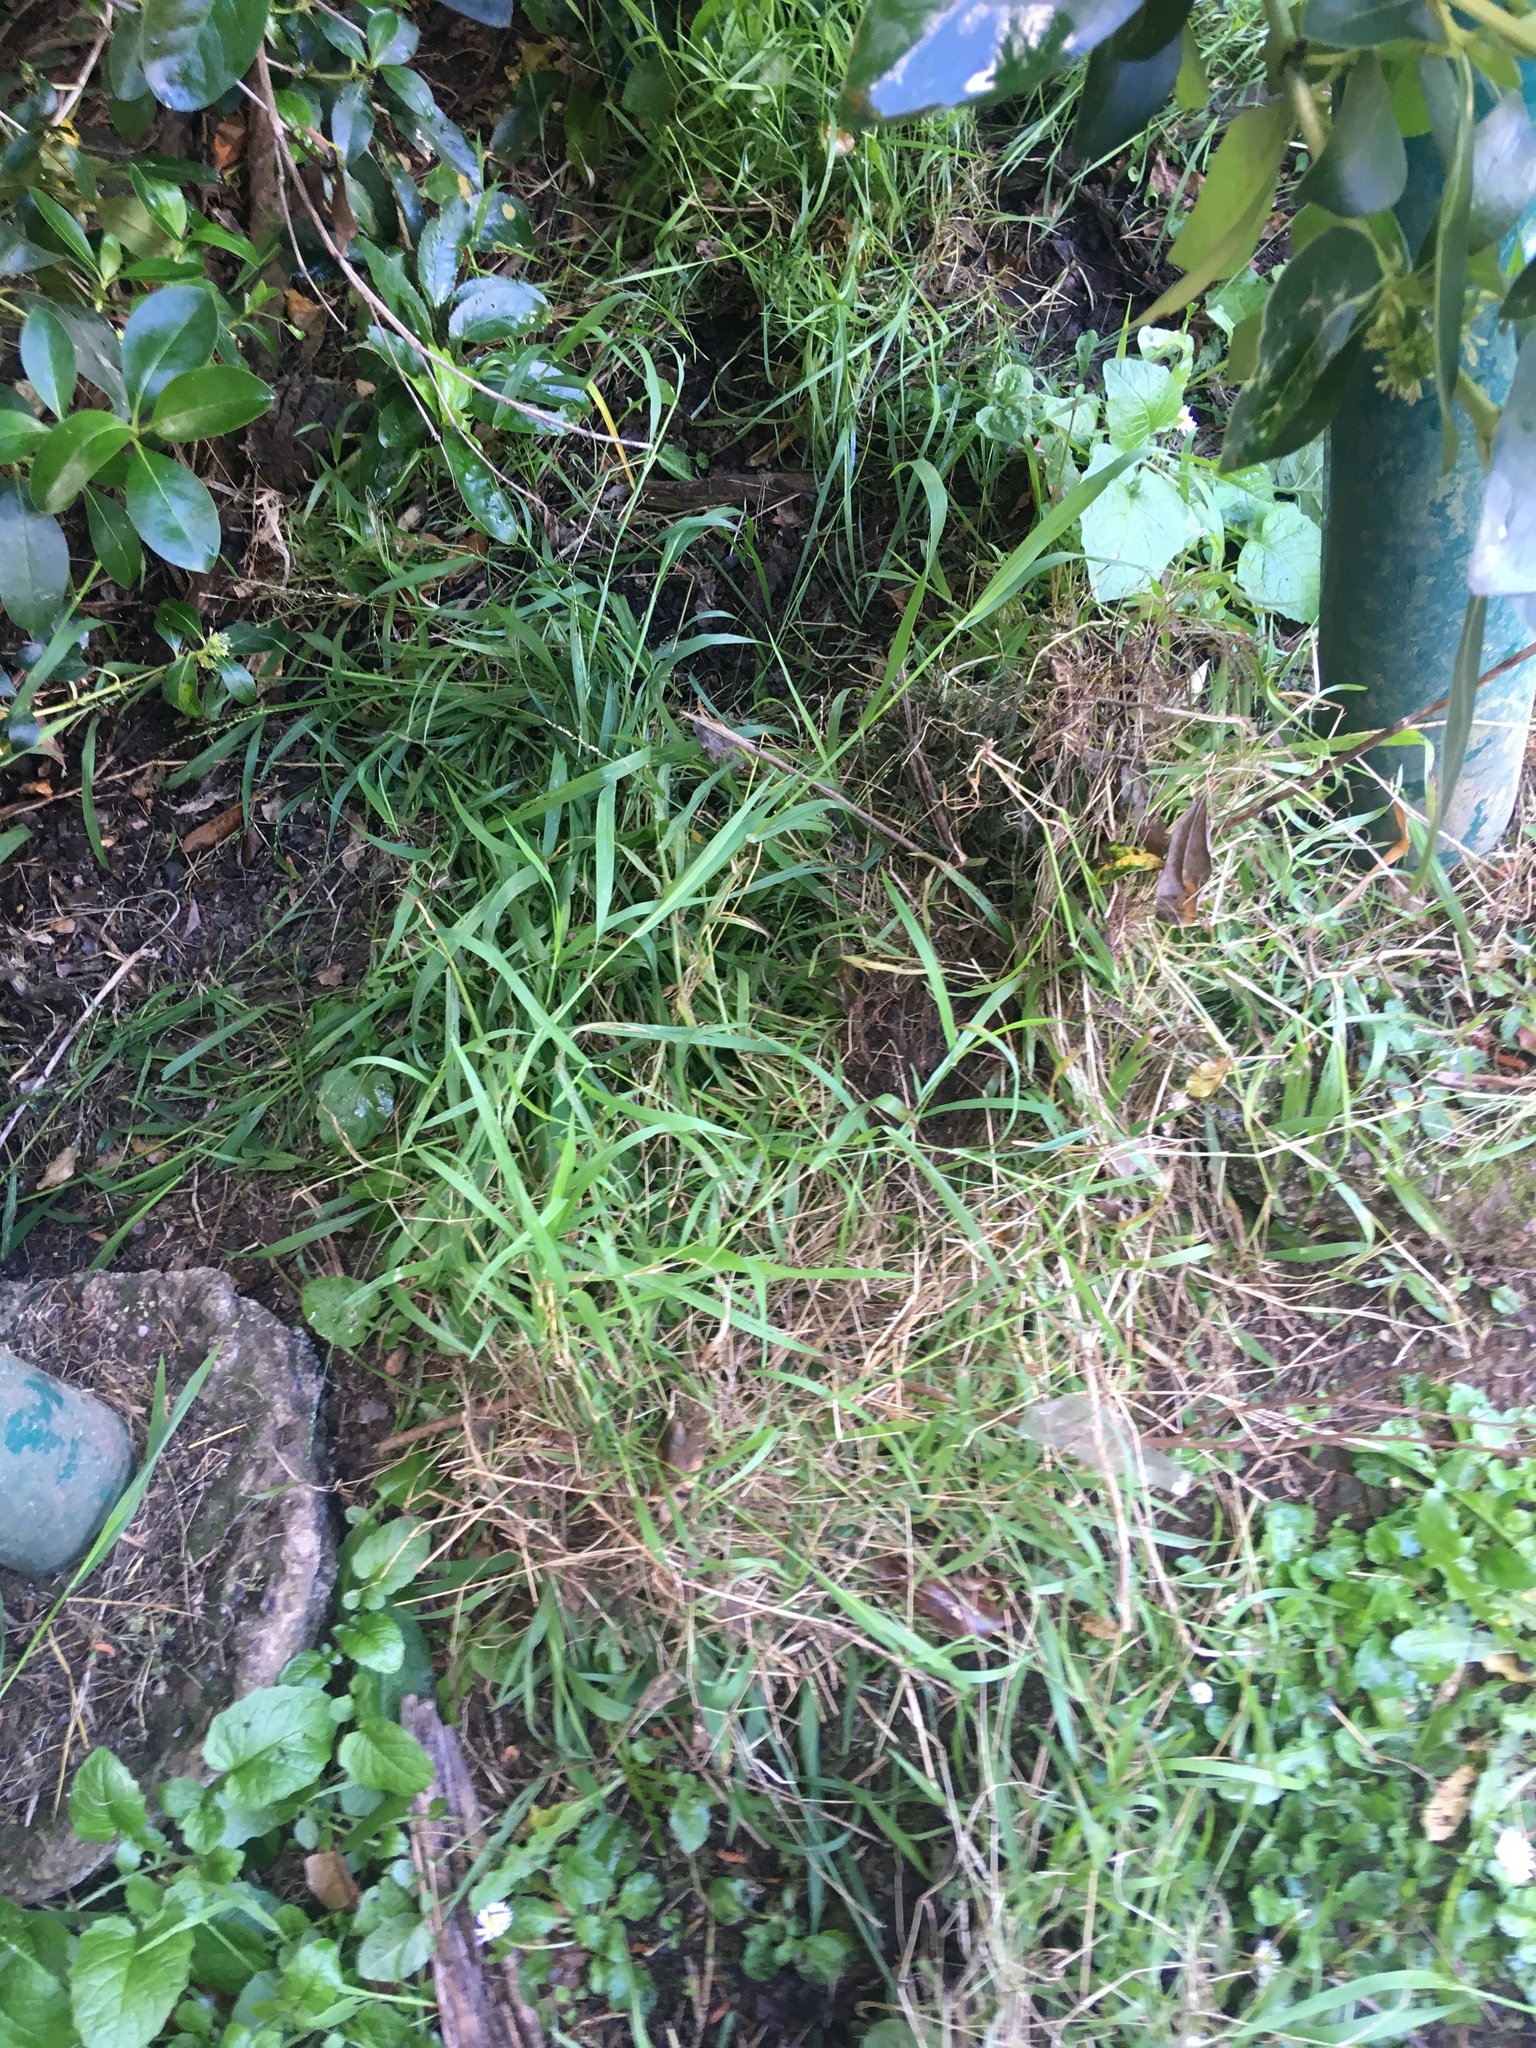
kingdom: Plantae
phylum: Tracheophyta
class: Liliopsida
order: Poales
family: Poaceae
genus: Ehrharta
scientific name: Ehrharta erecta
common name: Panic veldtgrass
